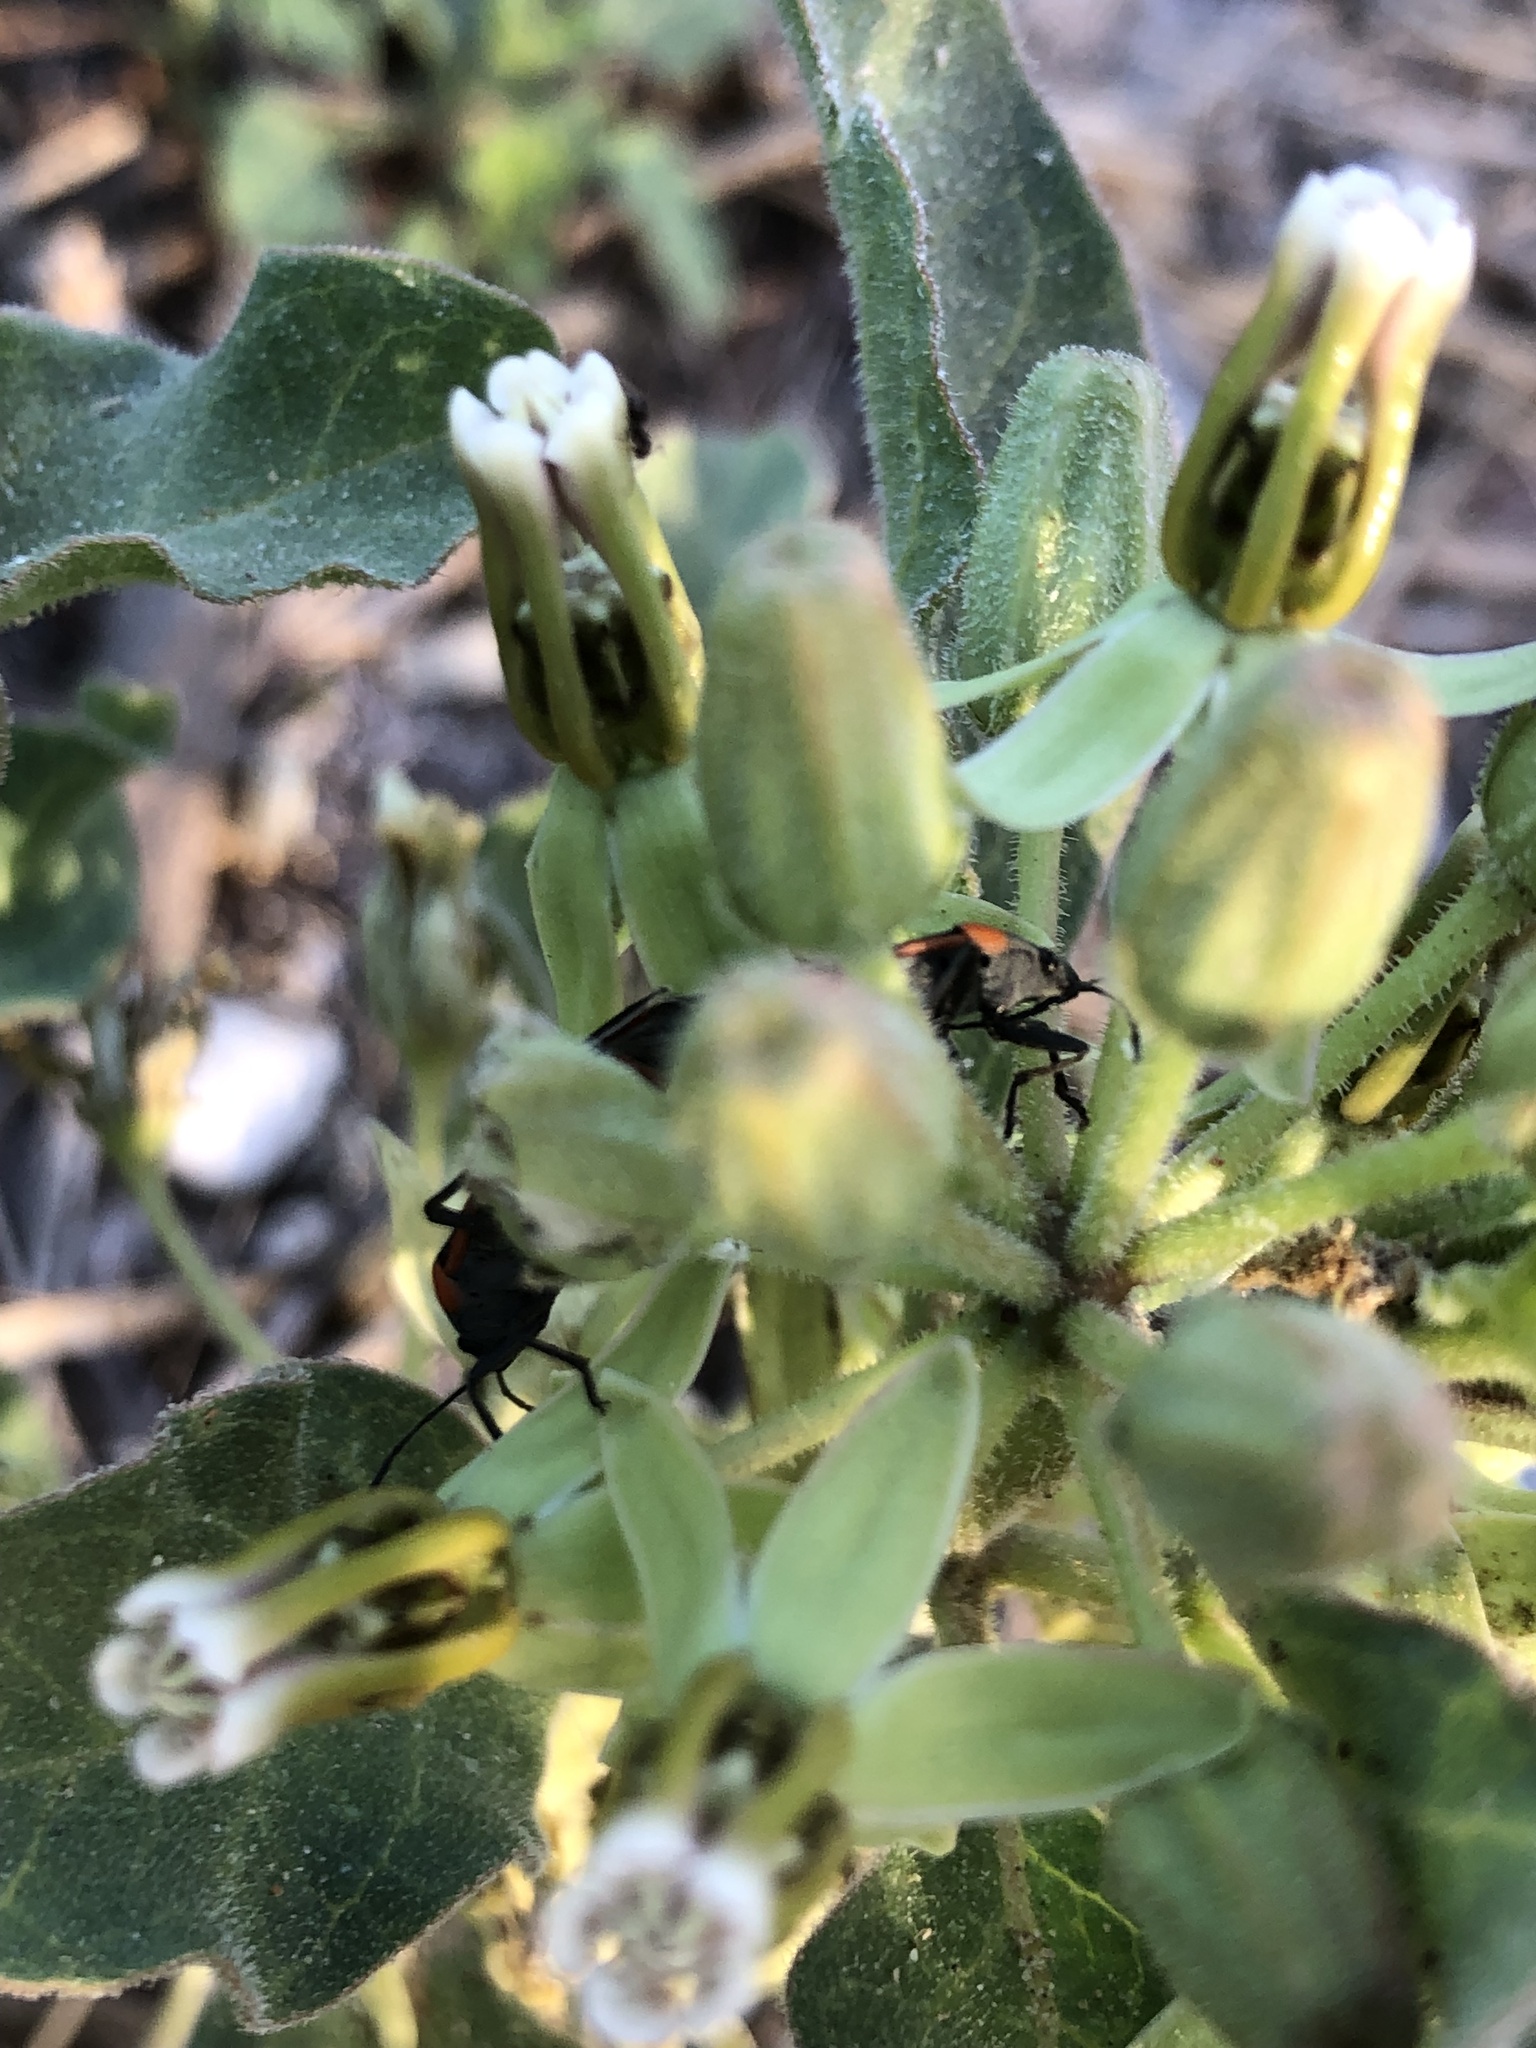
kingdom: Animalia
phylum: Arthropoda
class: Insecta
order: Hemiptera
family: Lygaeidae
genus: Lygaeus
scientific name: Lygaeus kalmii
